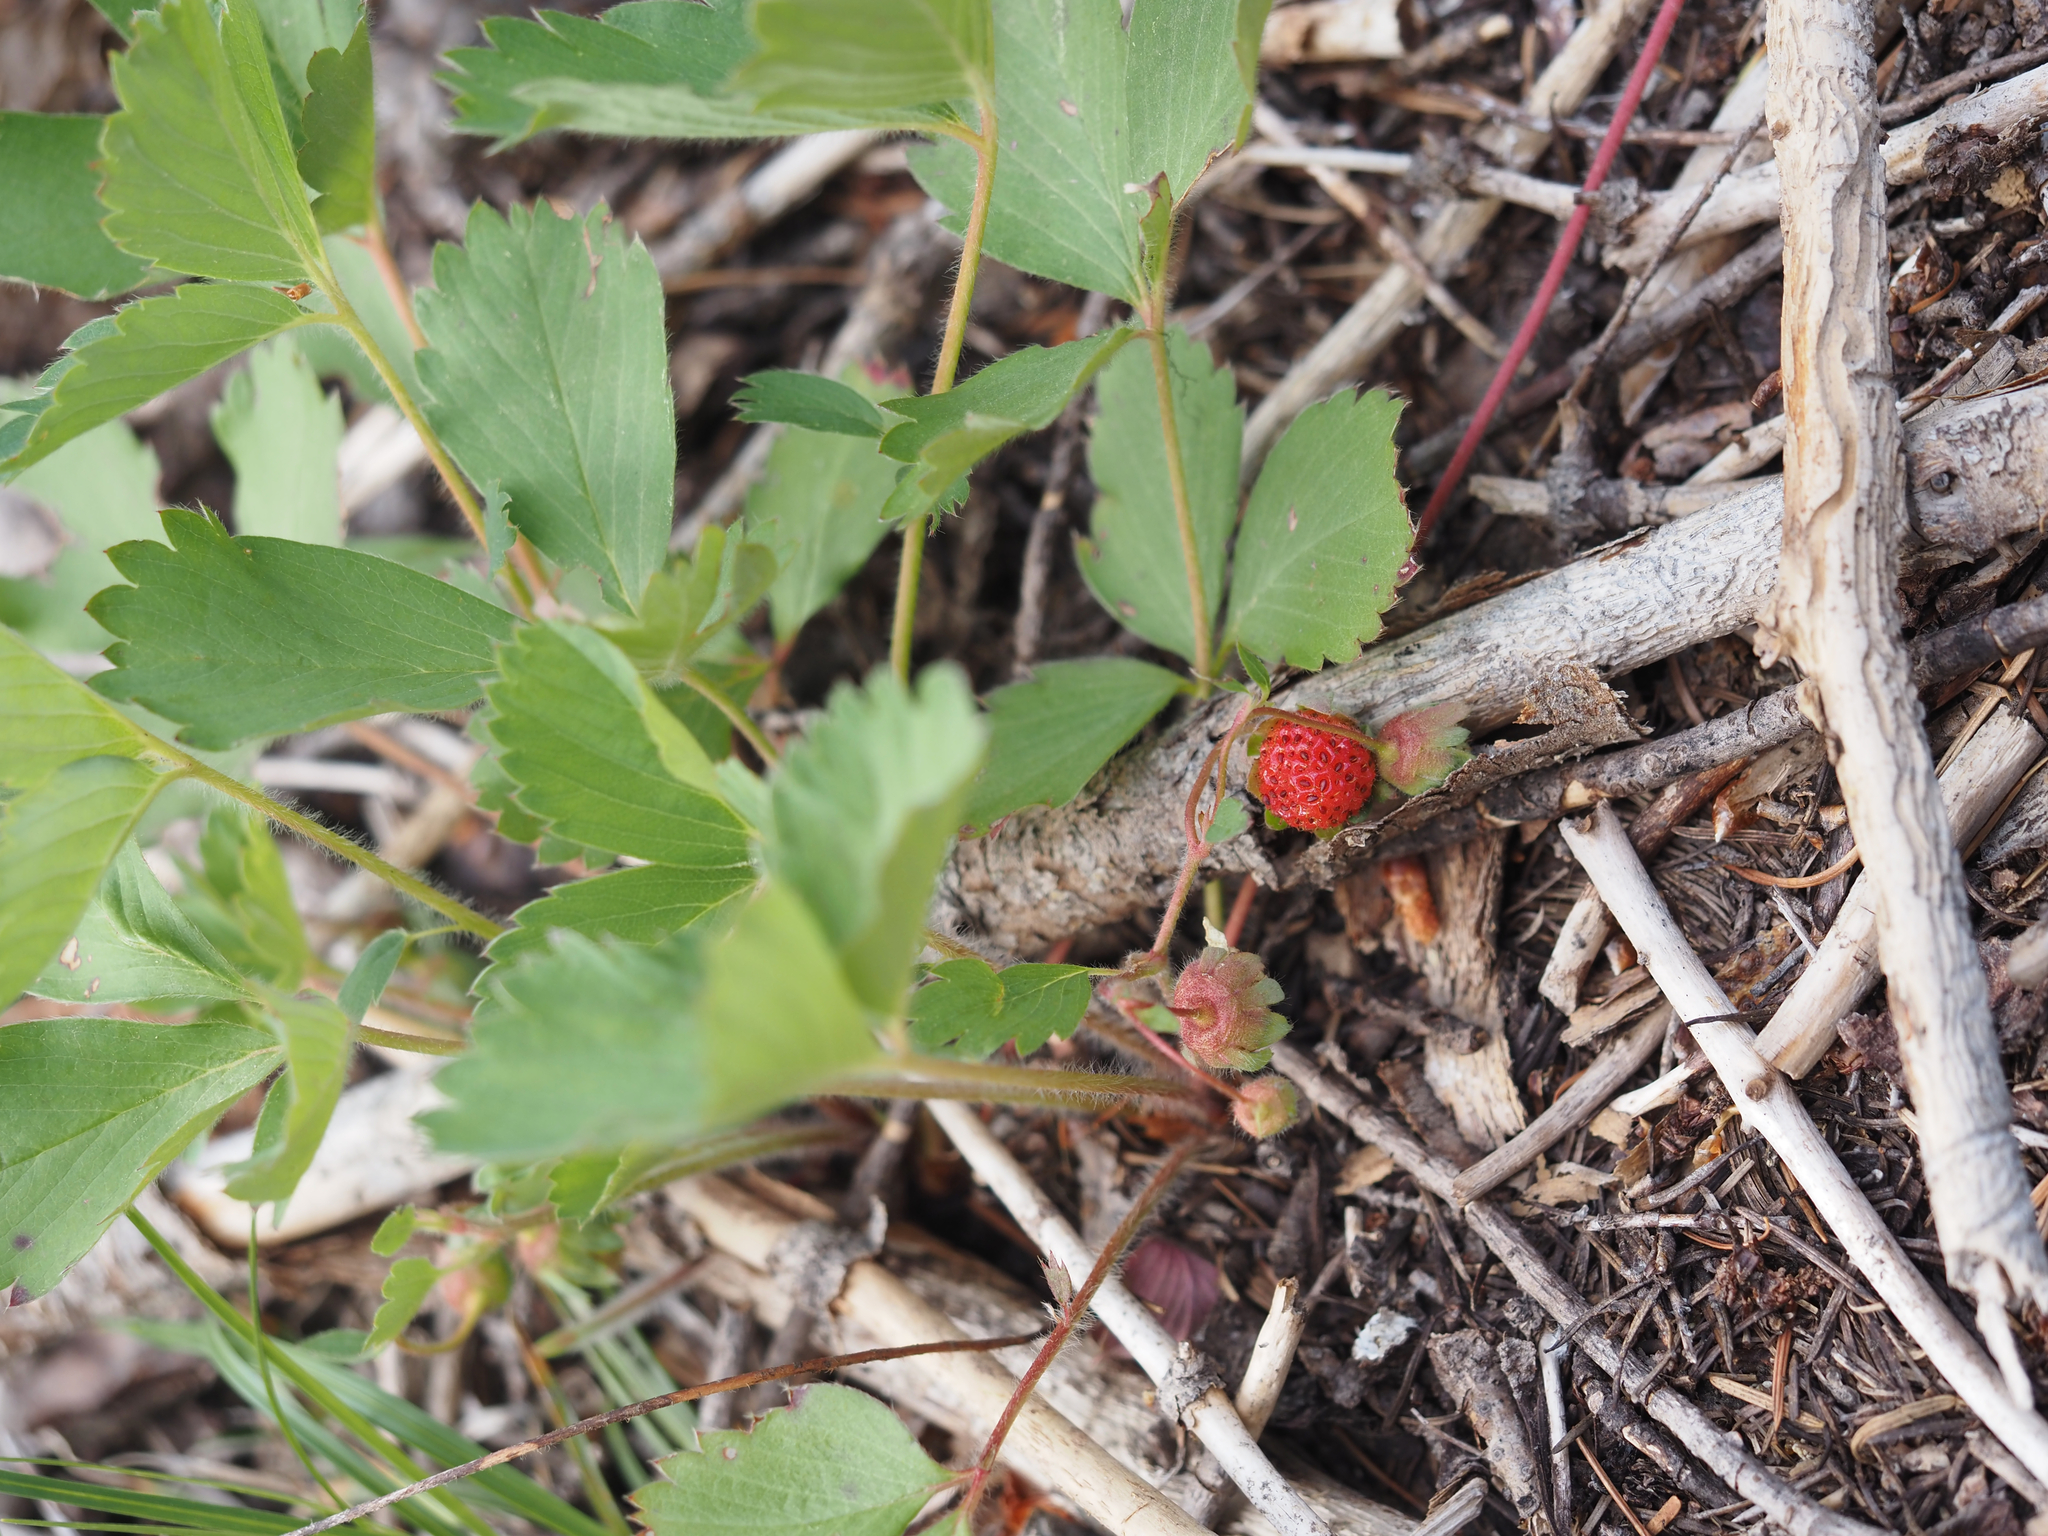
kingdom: Plantae
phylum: Tracheophyta
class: Magnoliopsida
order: Rosales
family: Rosaceae
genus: Fragaria
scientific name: Fragaria virginiana
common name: Thickleaved wild strawberry
